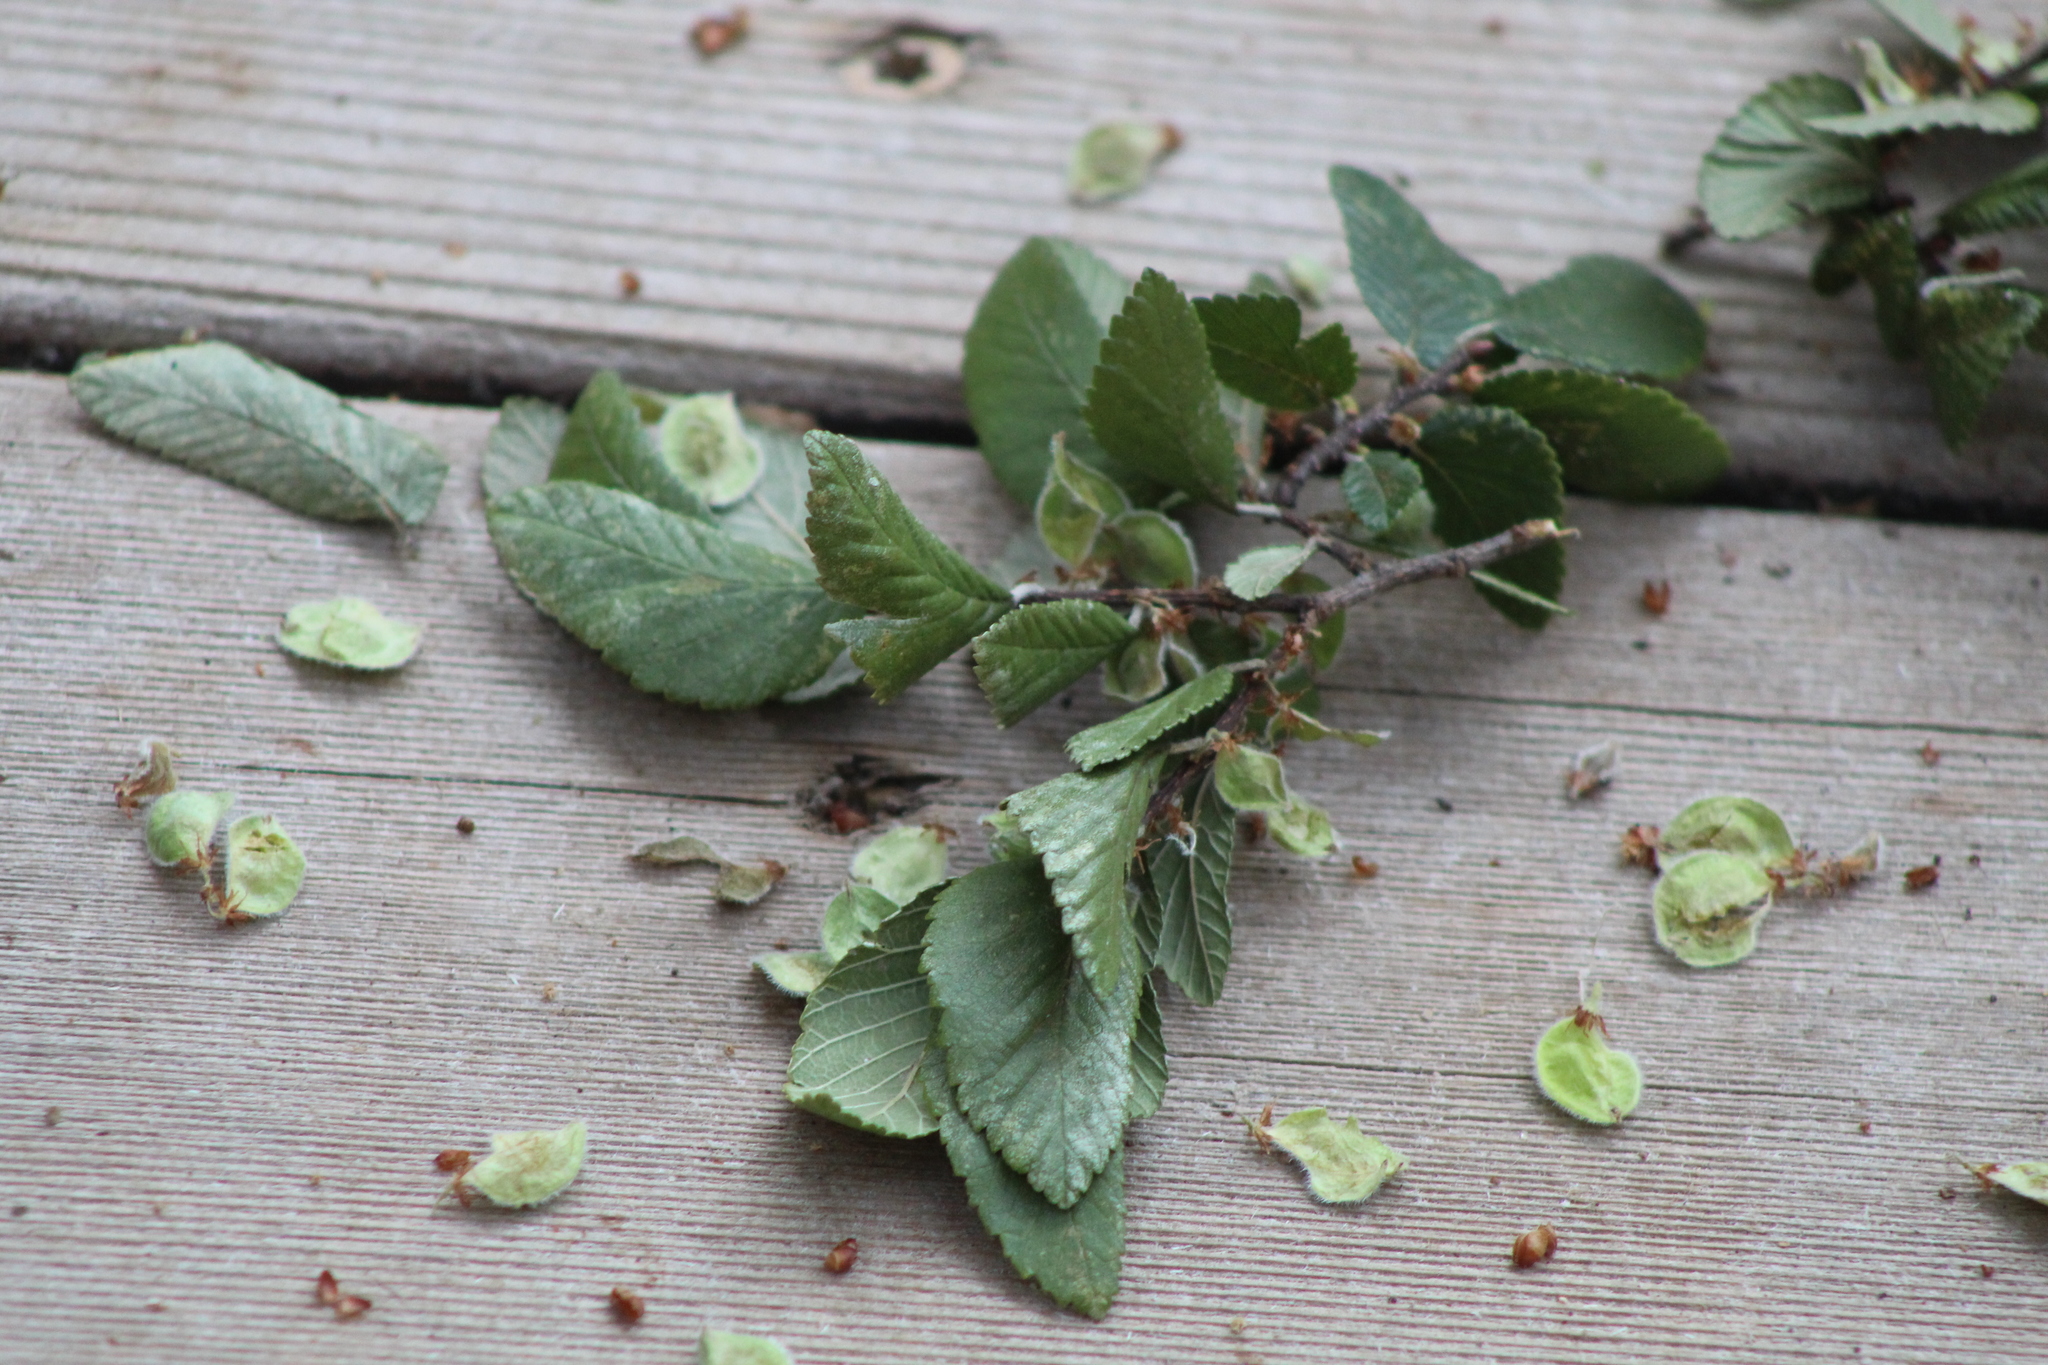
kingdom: Plantae
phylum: Tracheophyta
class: Magnoliopsida
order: Rosales
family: Ulmaceae
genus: Ulmus
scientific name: Ulmus crassifolia
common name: Basket elm
